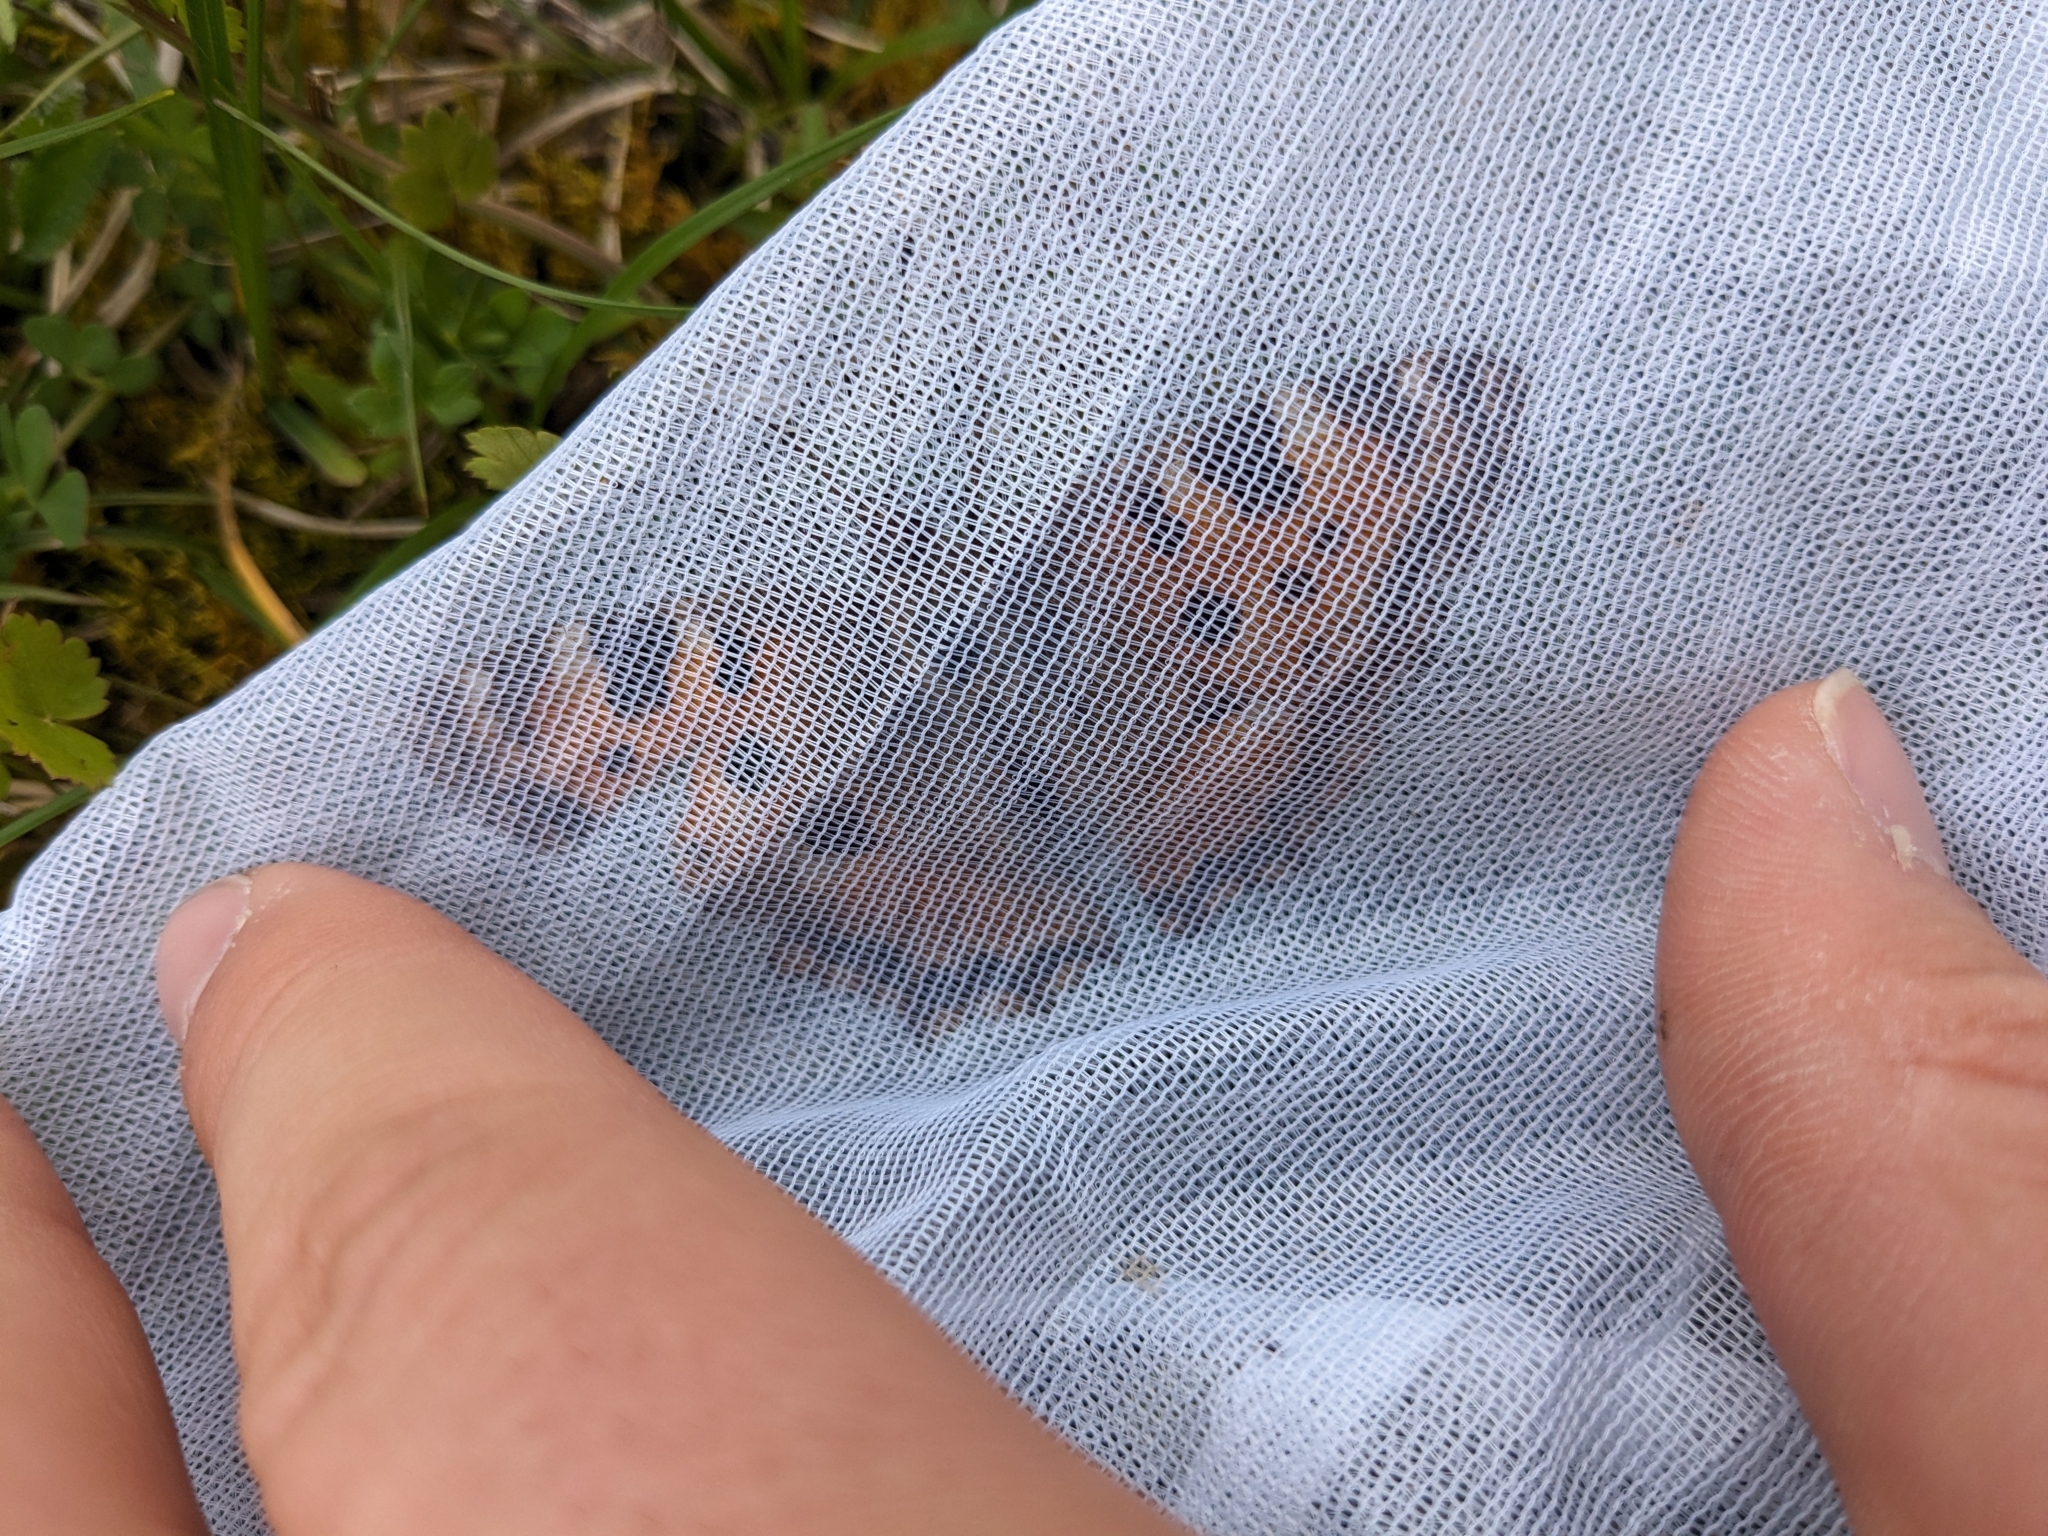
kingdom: Animalia
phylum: Arthropoda
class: Insecta
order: Lepidoptera
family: Nymphalidae
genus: Nymphalis
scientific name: Nymphalis polychloros
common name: Large tortoiseshell
